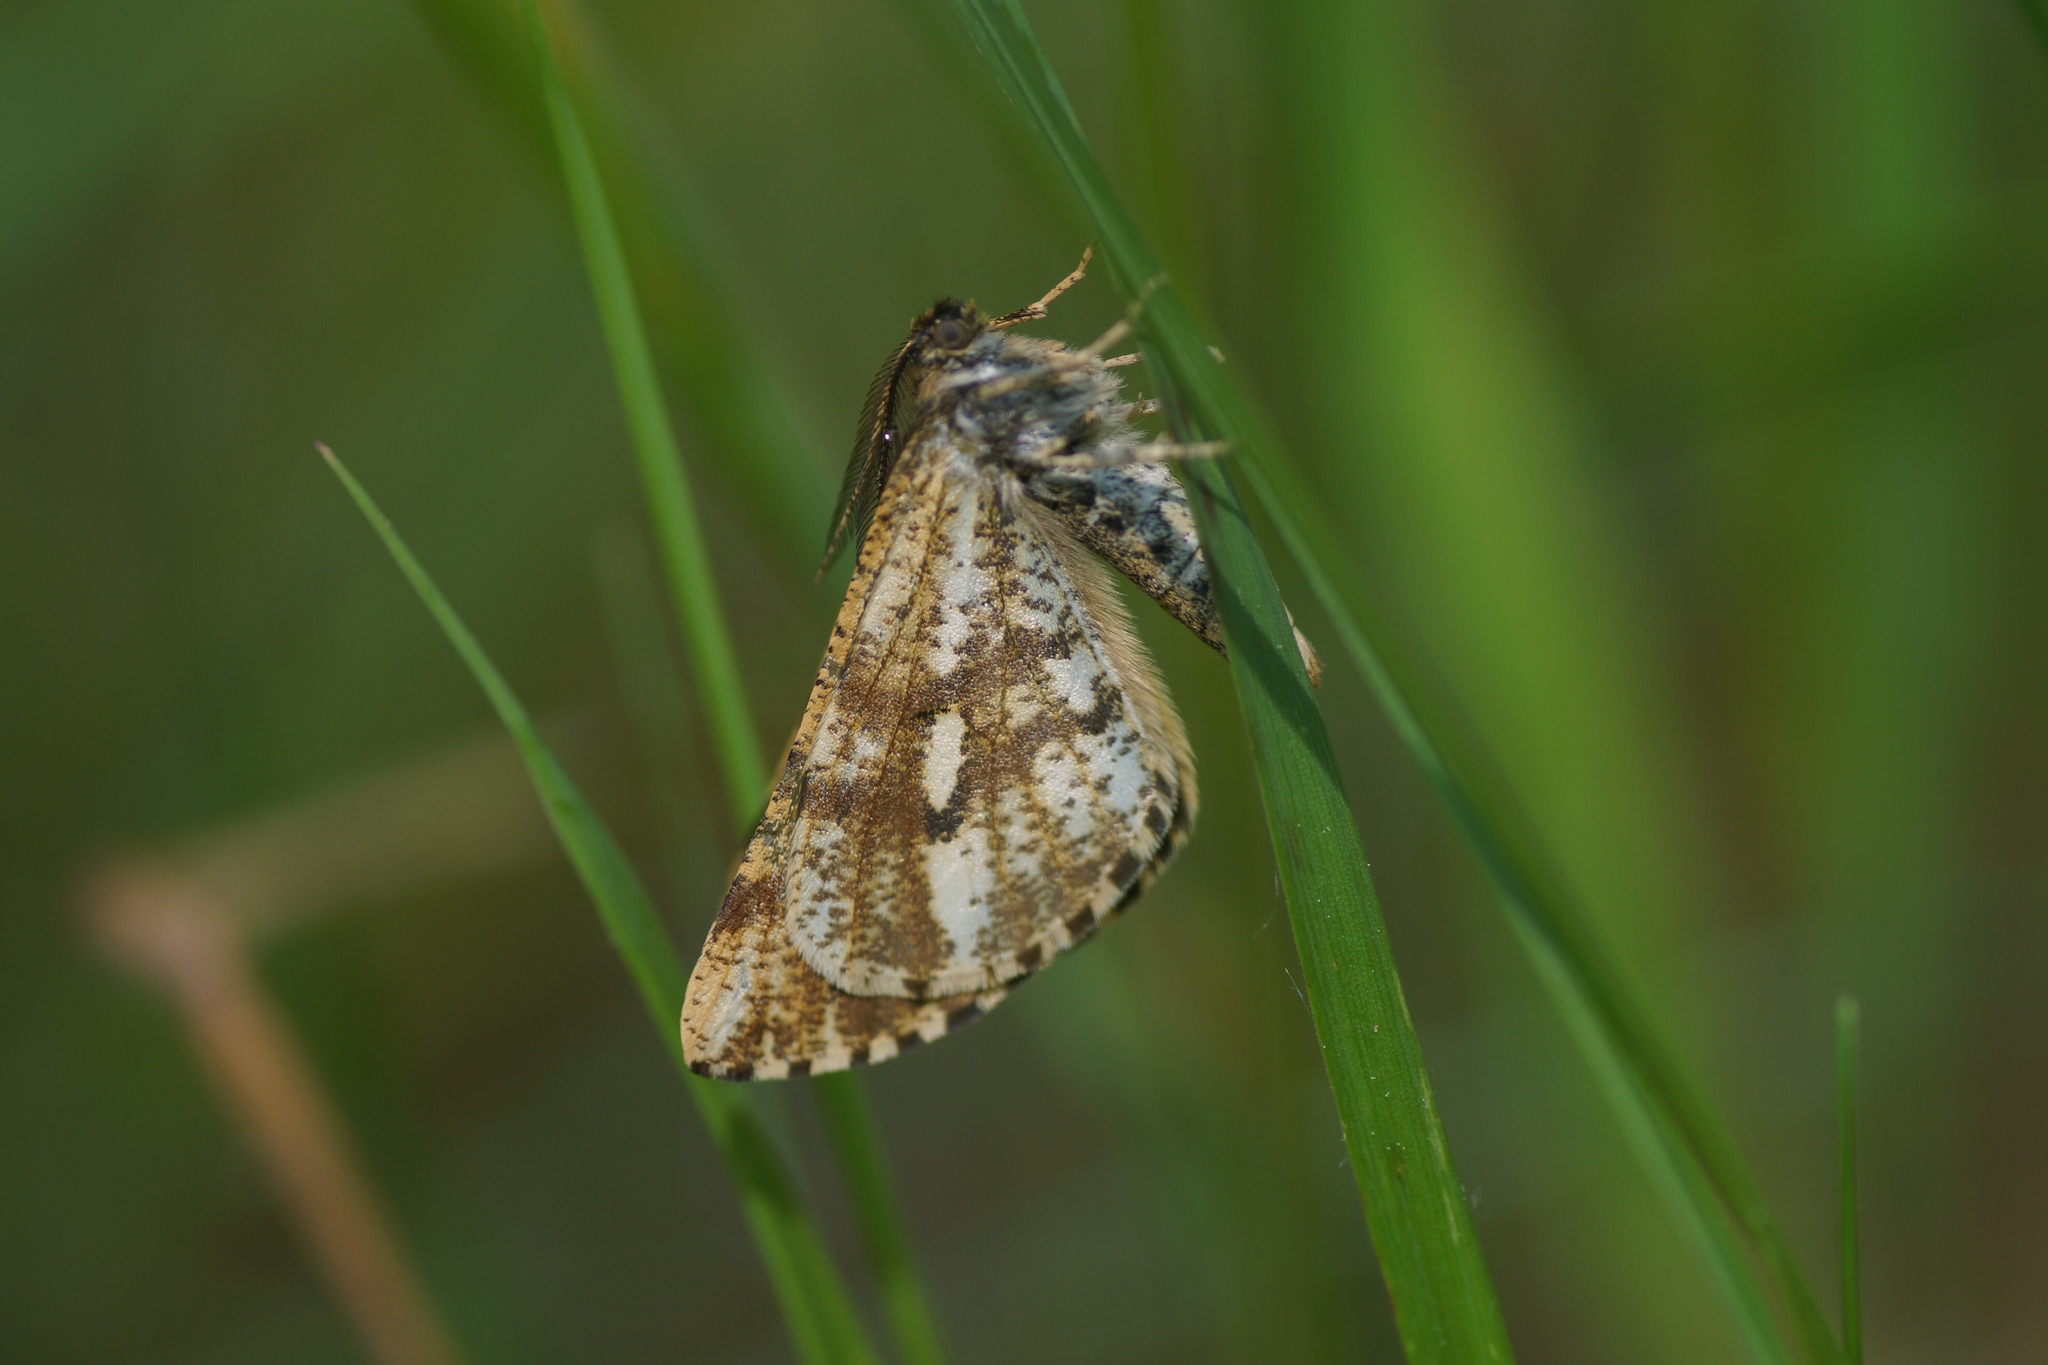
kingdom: Animalia
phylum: Arthropoda
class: Insecta
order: Lepidoptera
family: Geometridae
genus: Bupalus
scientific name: Bupalus piniaria
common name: Bordered white
